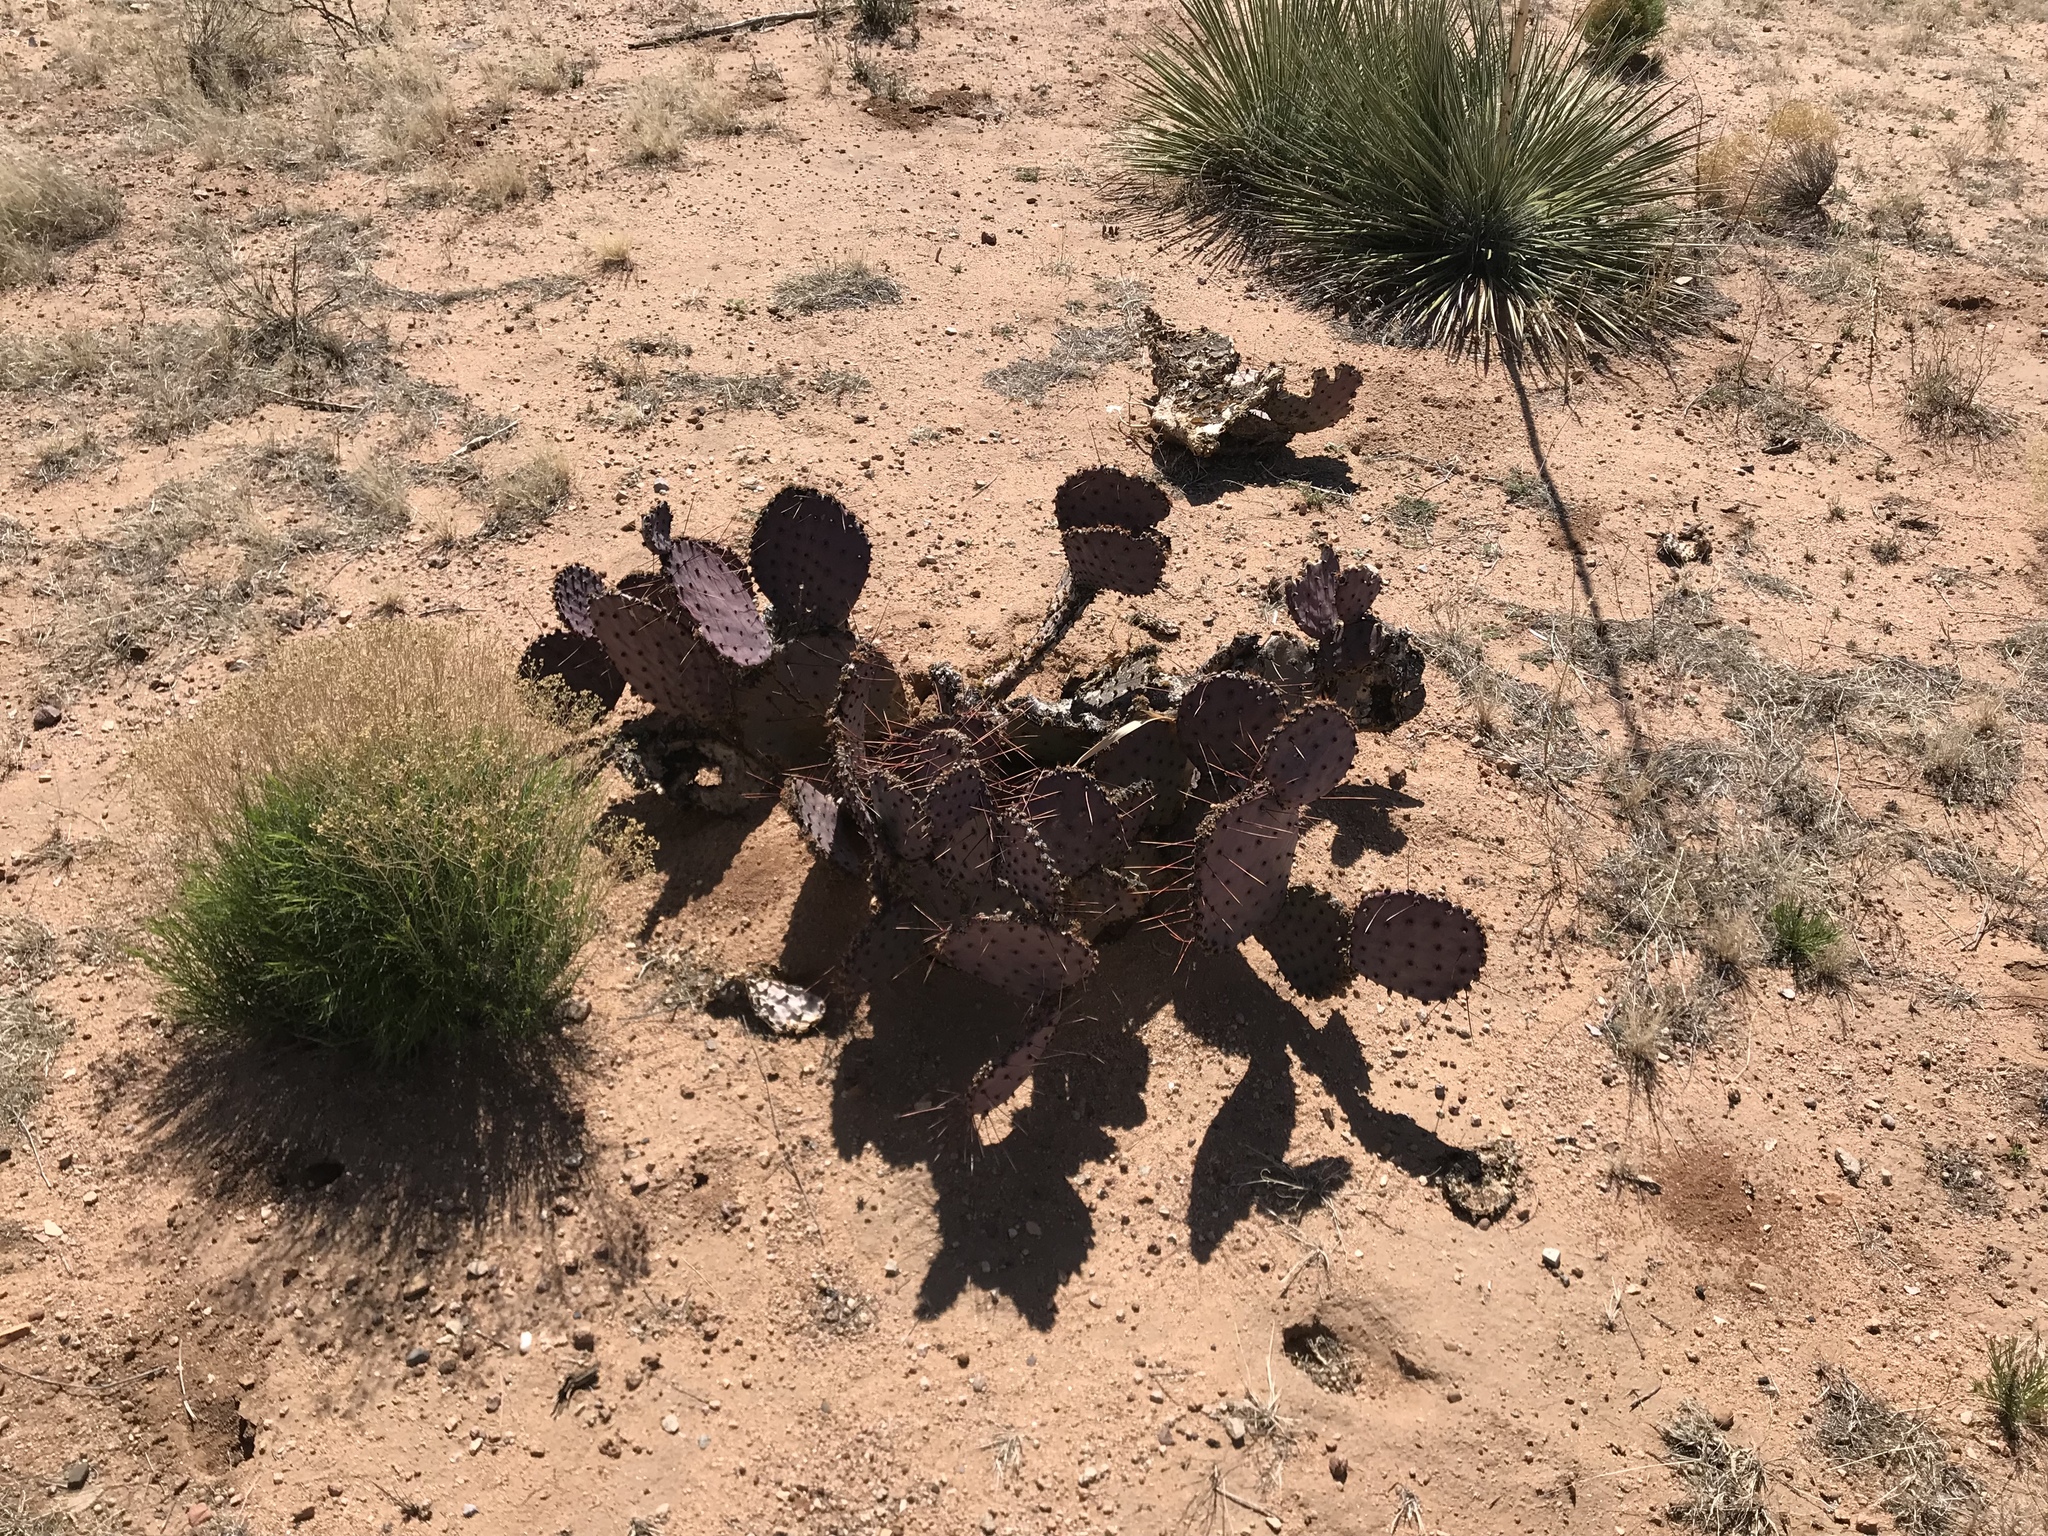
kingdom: Plantae
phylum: Tracheophyta
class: Magnoliopsida
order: Caryophyllales
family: Cactaceae
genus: Opuntia
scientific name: Opuntia macrocentra
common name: Purple prickly-pear
